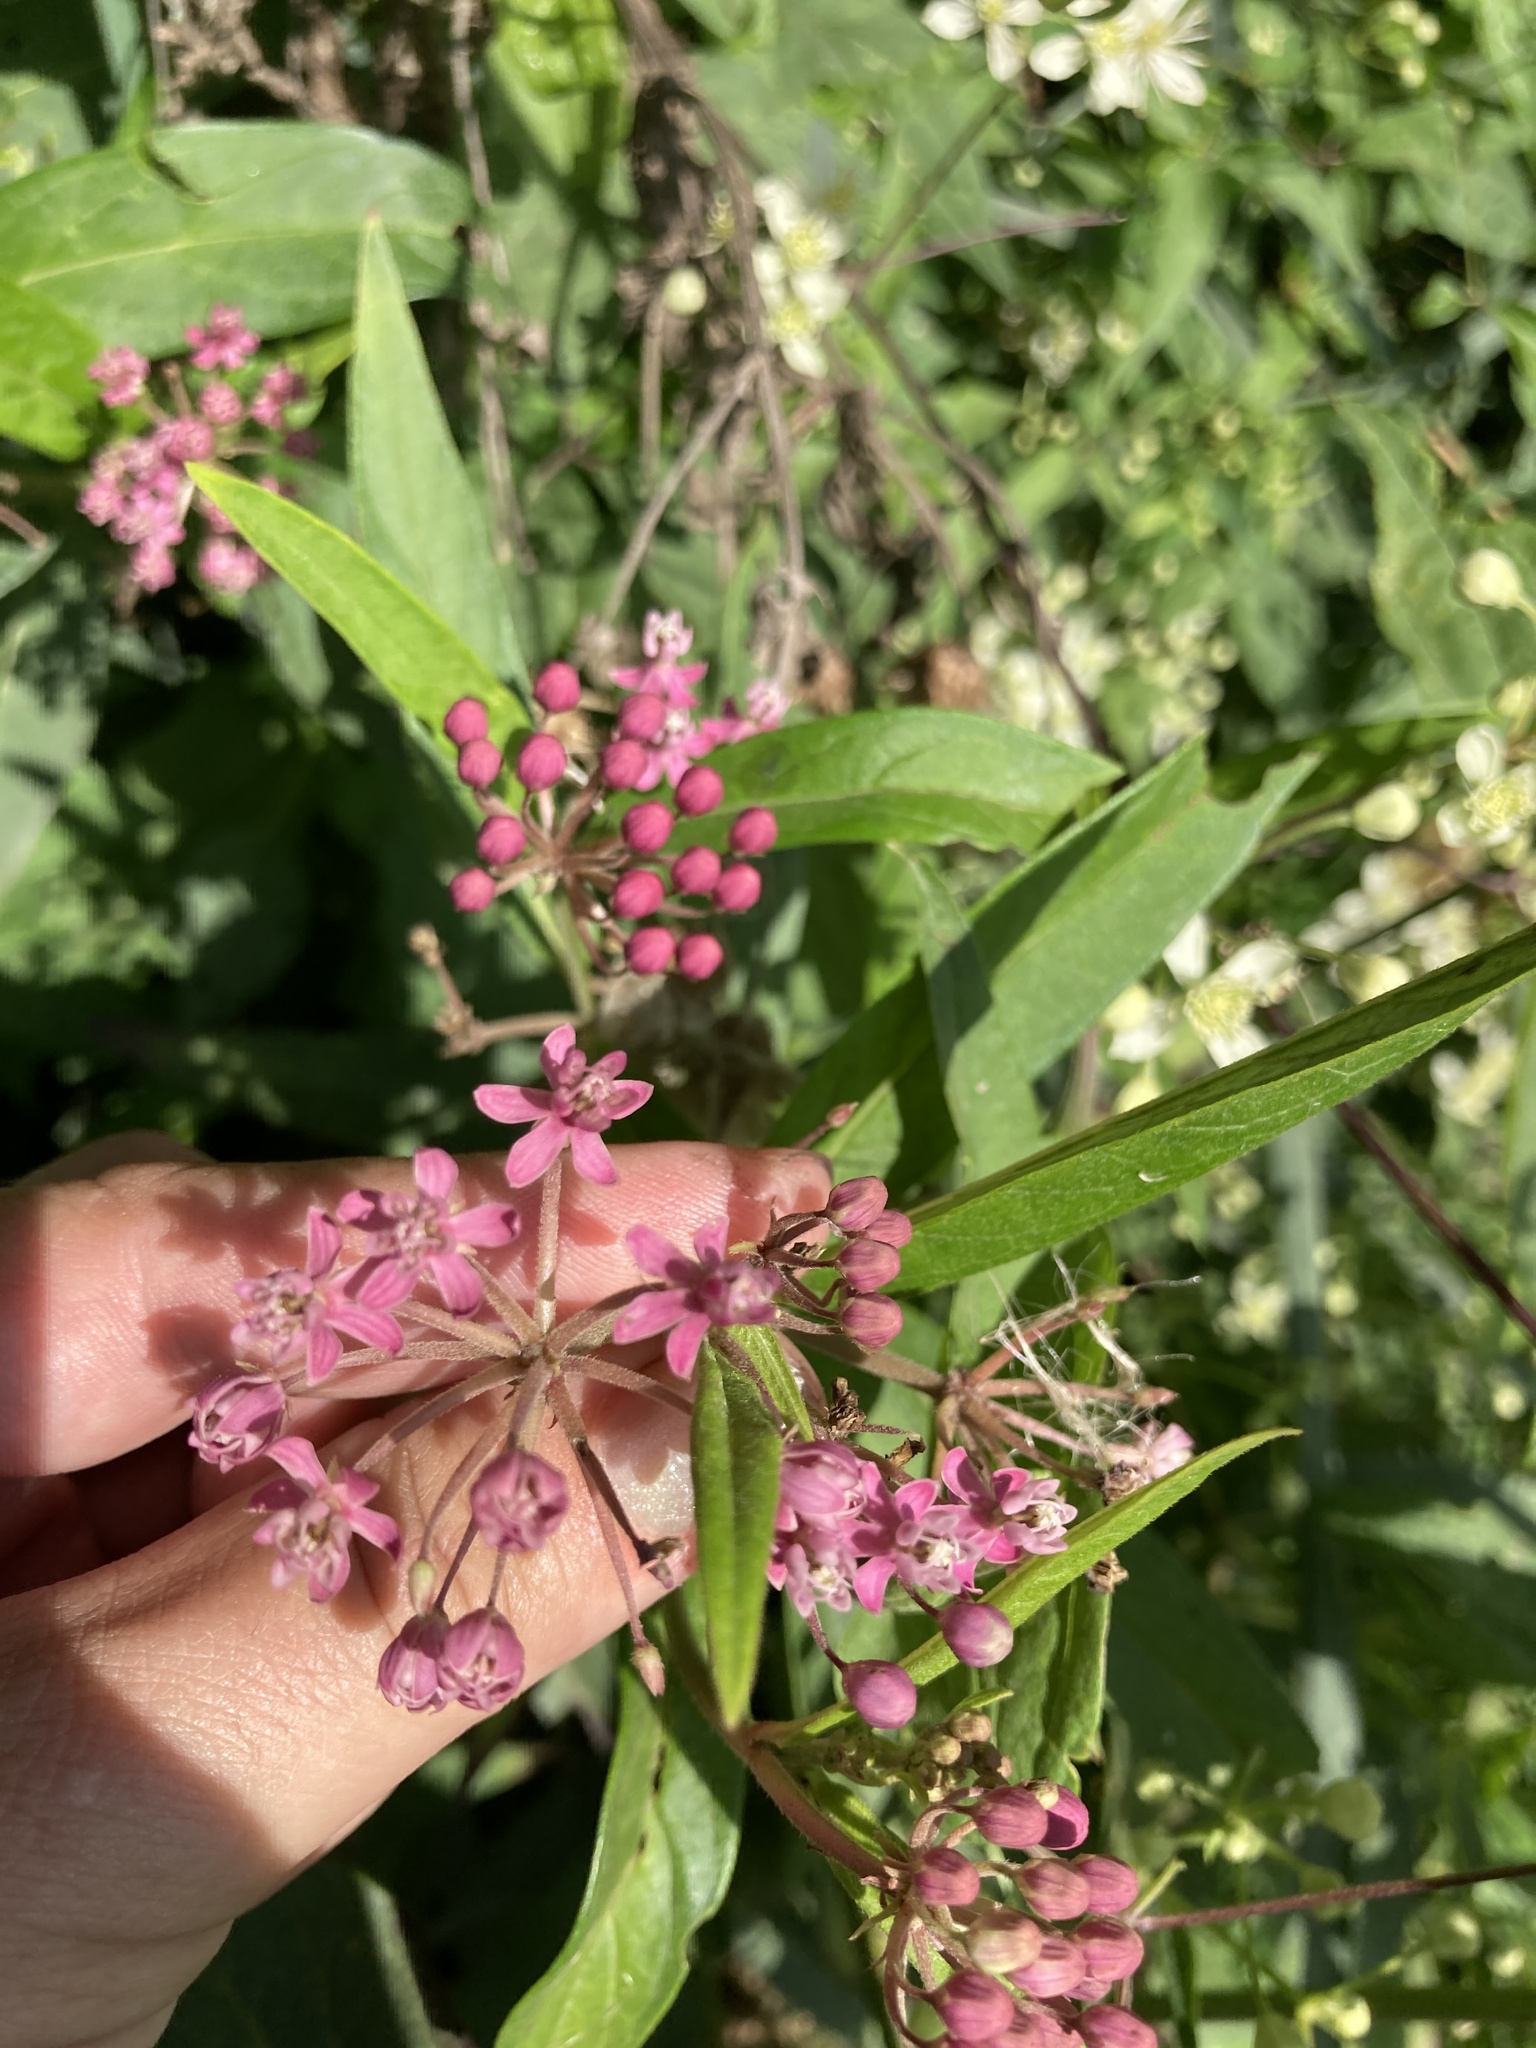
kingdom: Plantae
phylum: Tracheophyta
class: Magnoliopsida
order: Gentianales
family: Apocynaceae
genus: Asclepias
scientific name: Asclepias incarnata
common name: Swamp milkweed
